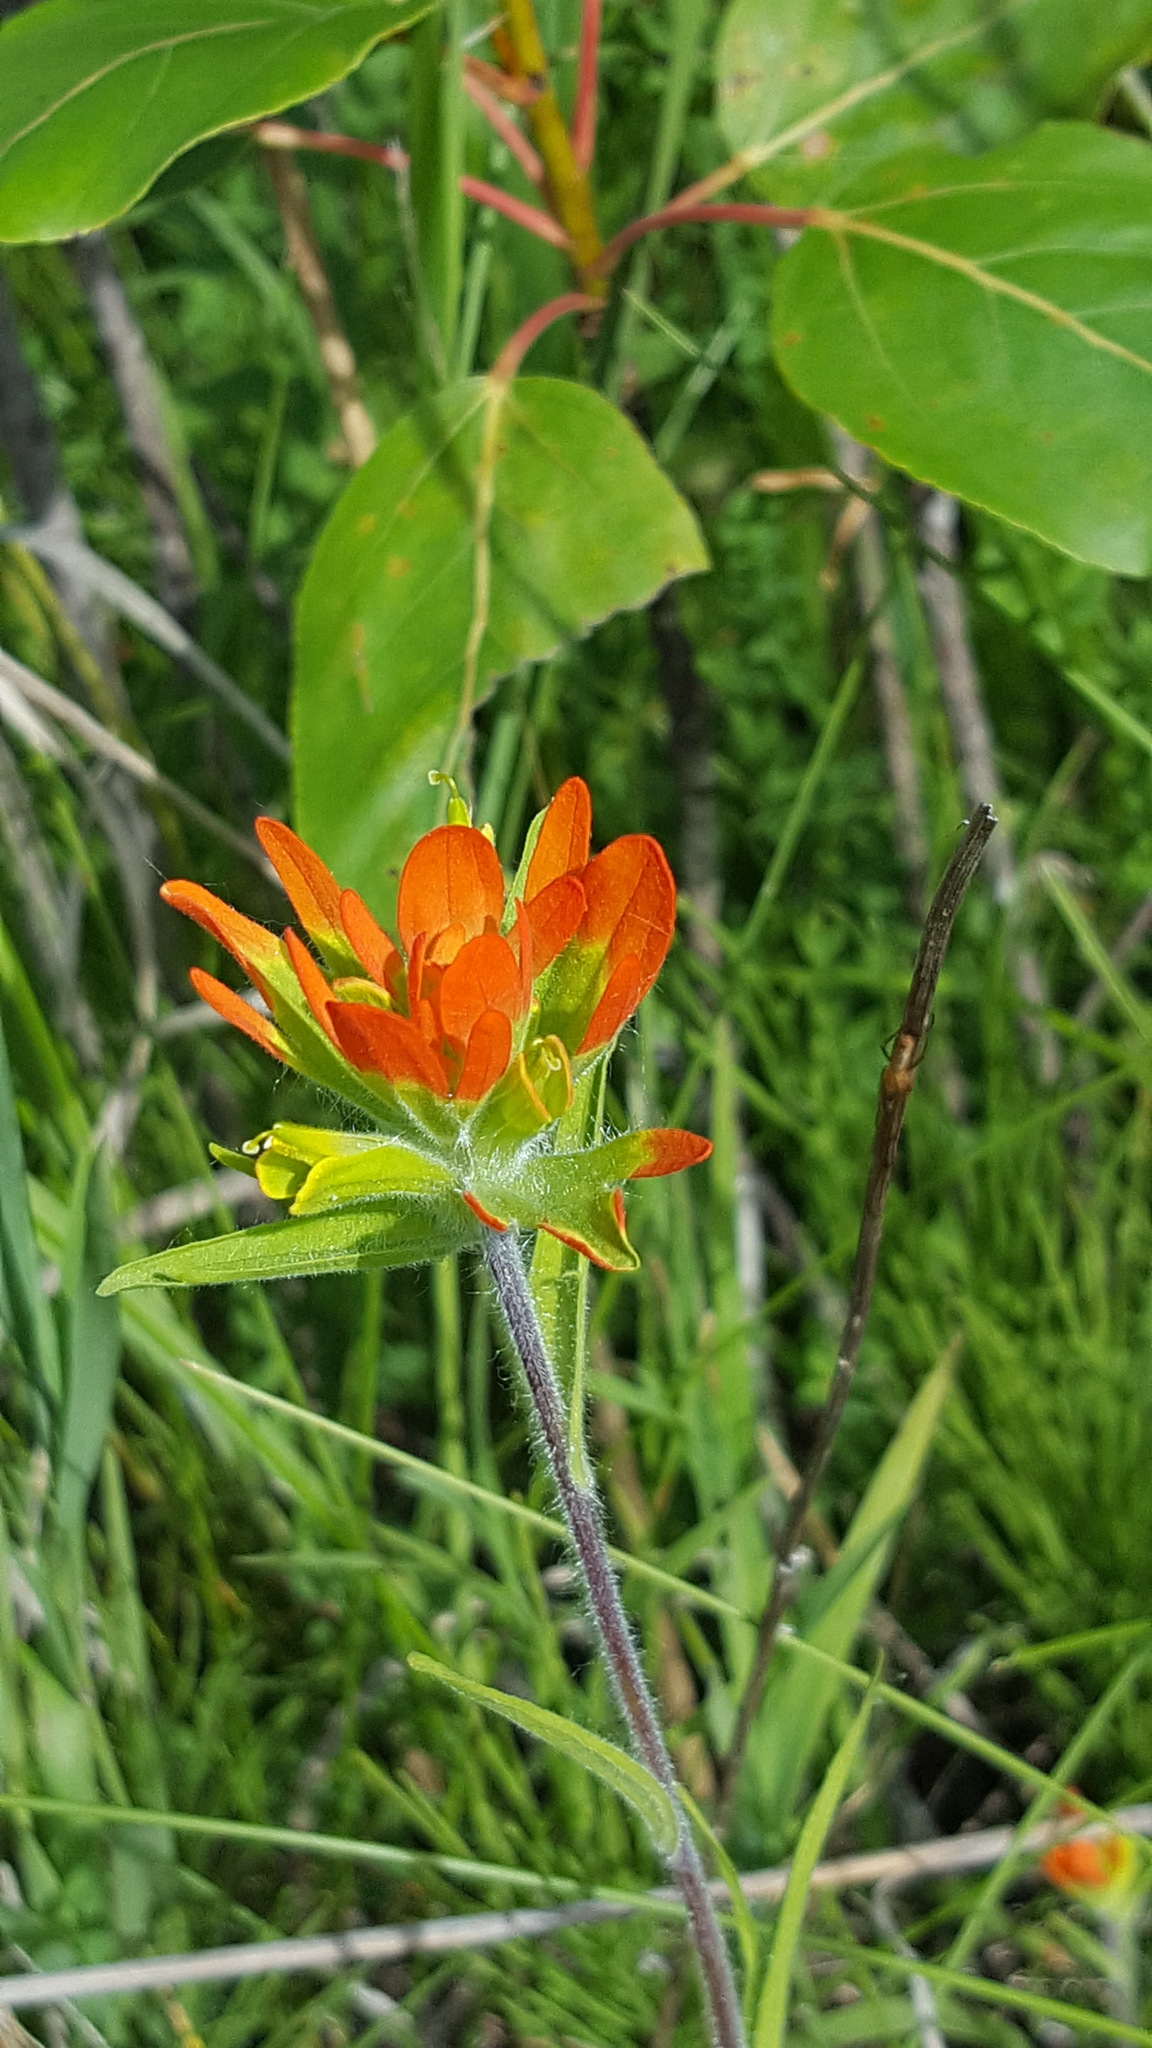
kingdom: Plantae
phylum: Tracheophyta
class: Magnoliopsida
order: Lamiales
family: Orobanchaceae
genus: Castilleja
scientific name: Castilleja coccinea
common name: Scarlet paintbrush
